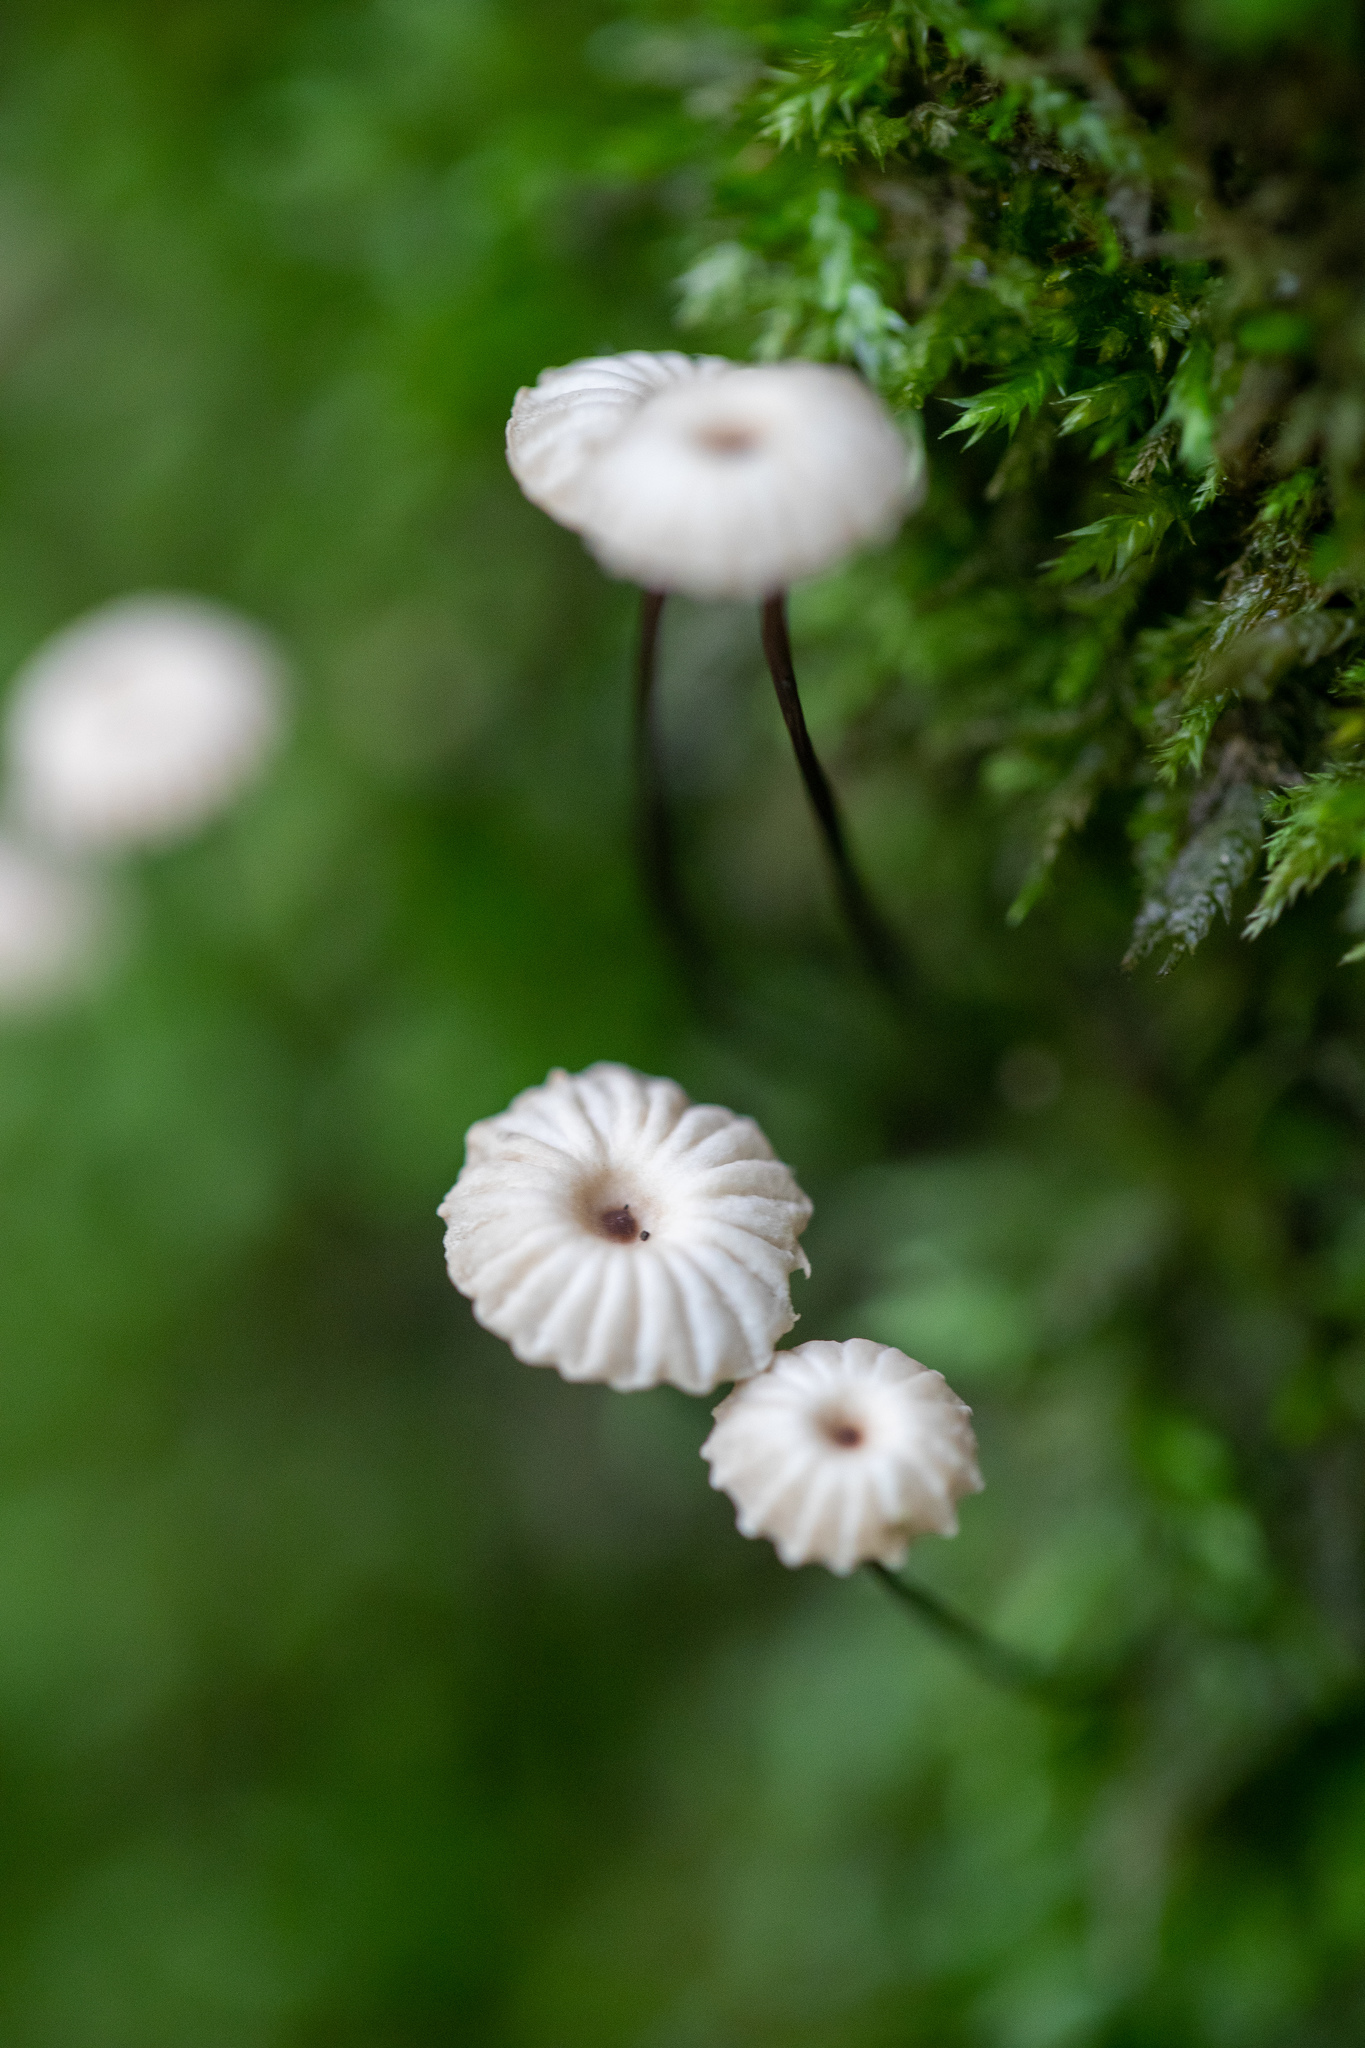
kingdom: Fungi
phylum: Basidiomycota
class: Agaricomycetes
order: Agaricales
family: Marasmiaceae
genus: Marasmius
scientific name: Marasmius rotula
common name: Collared parachute
